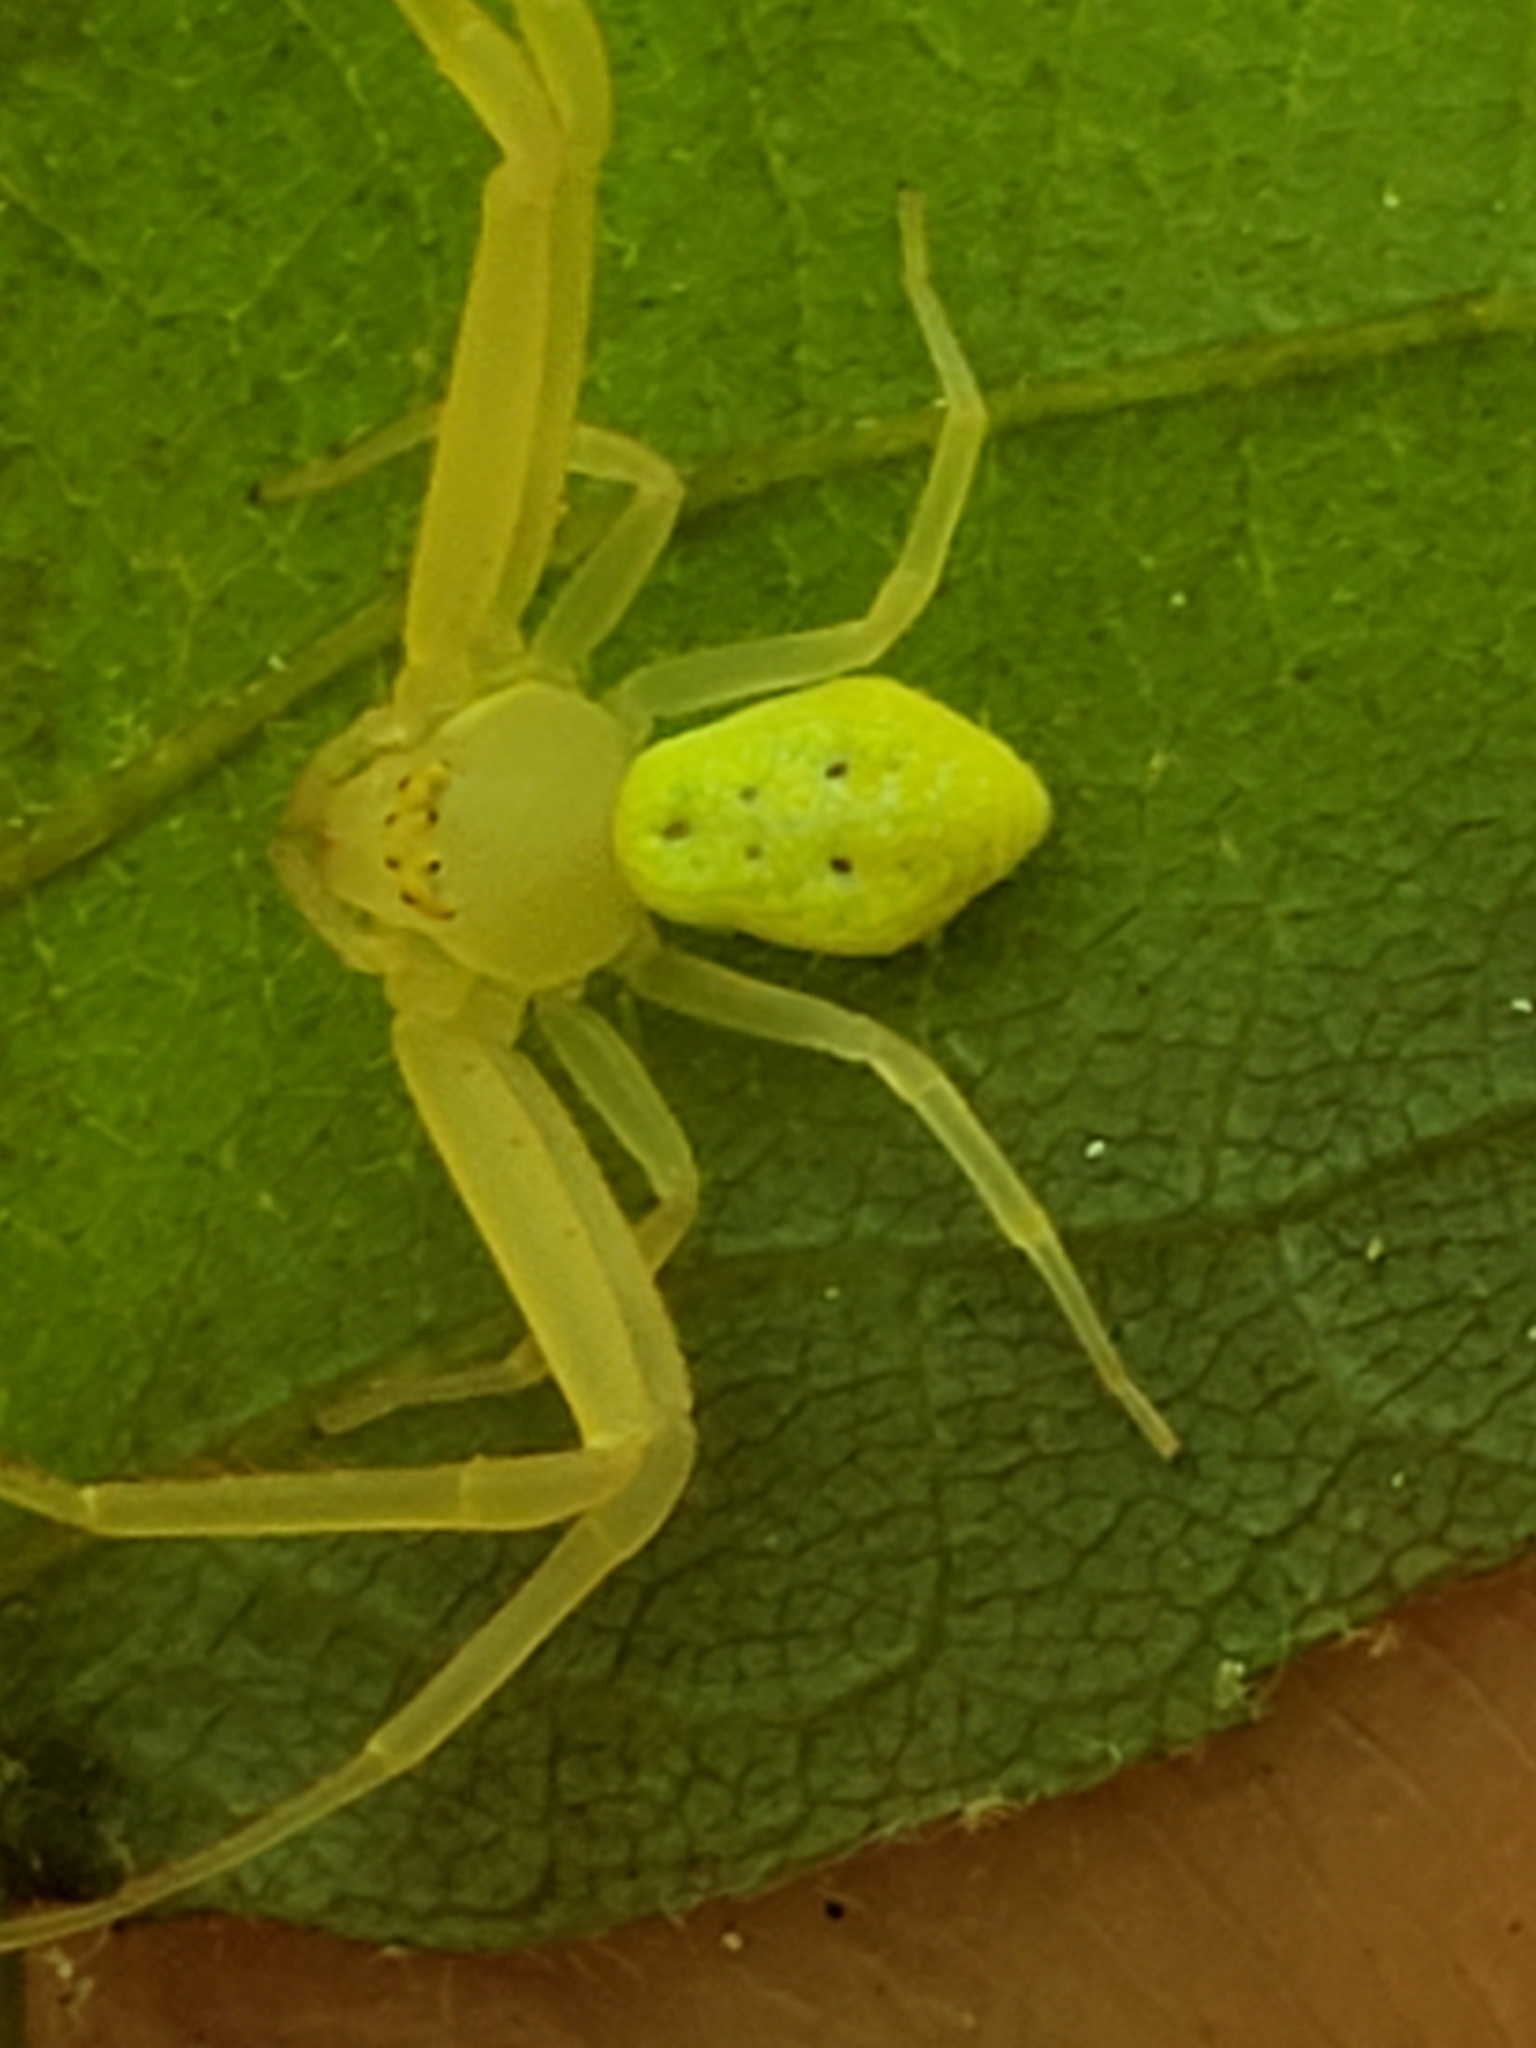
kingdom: Animalia
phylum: Arthropoda
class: Arachnida
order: Araneae
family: Thomisidae
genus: Misumessus
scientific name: Misumessus oblongus
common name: American green crab spider
